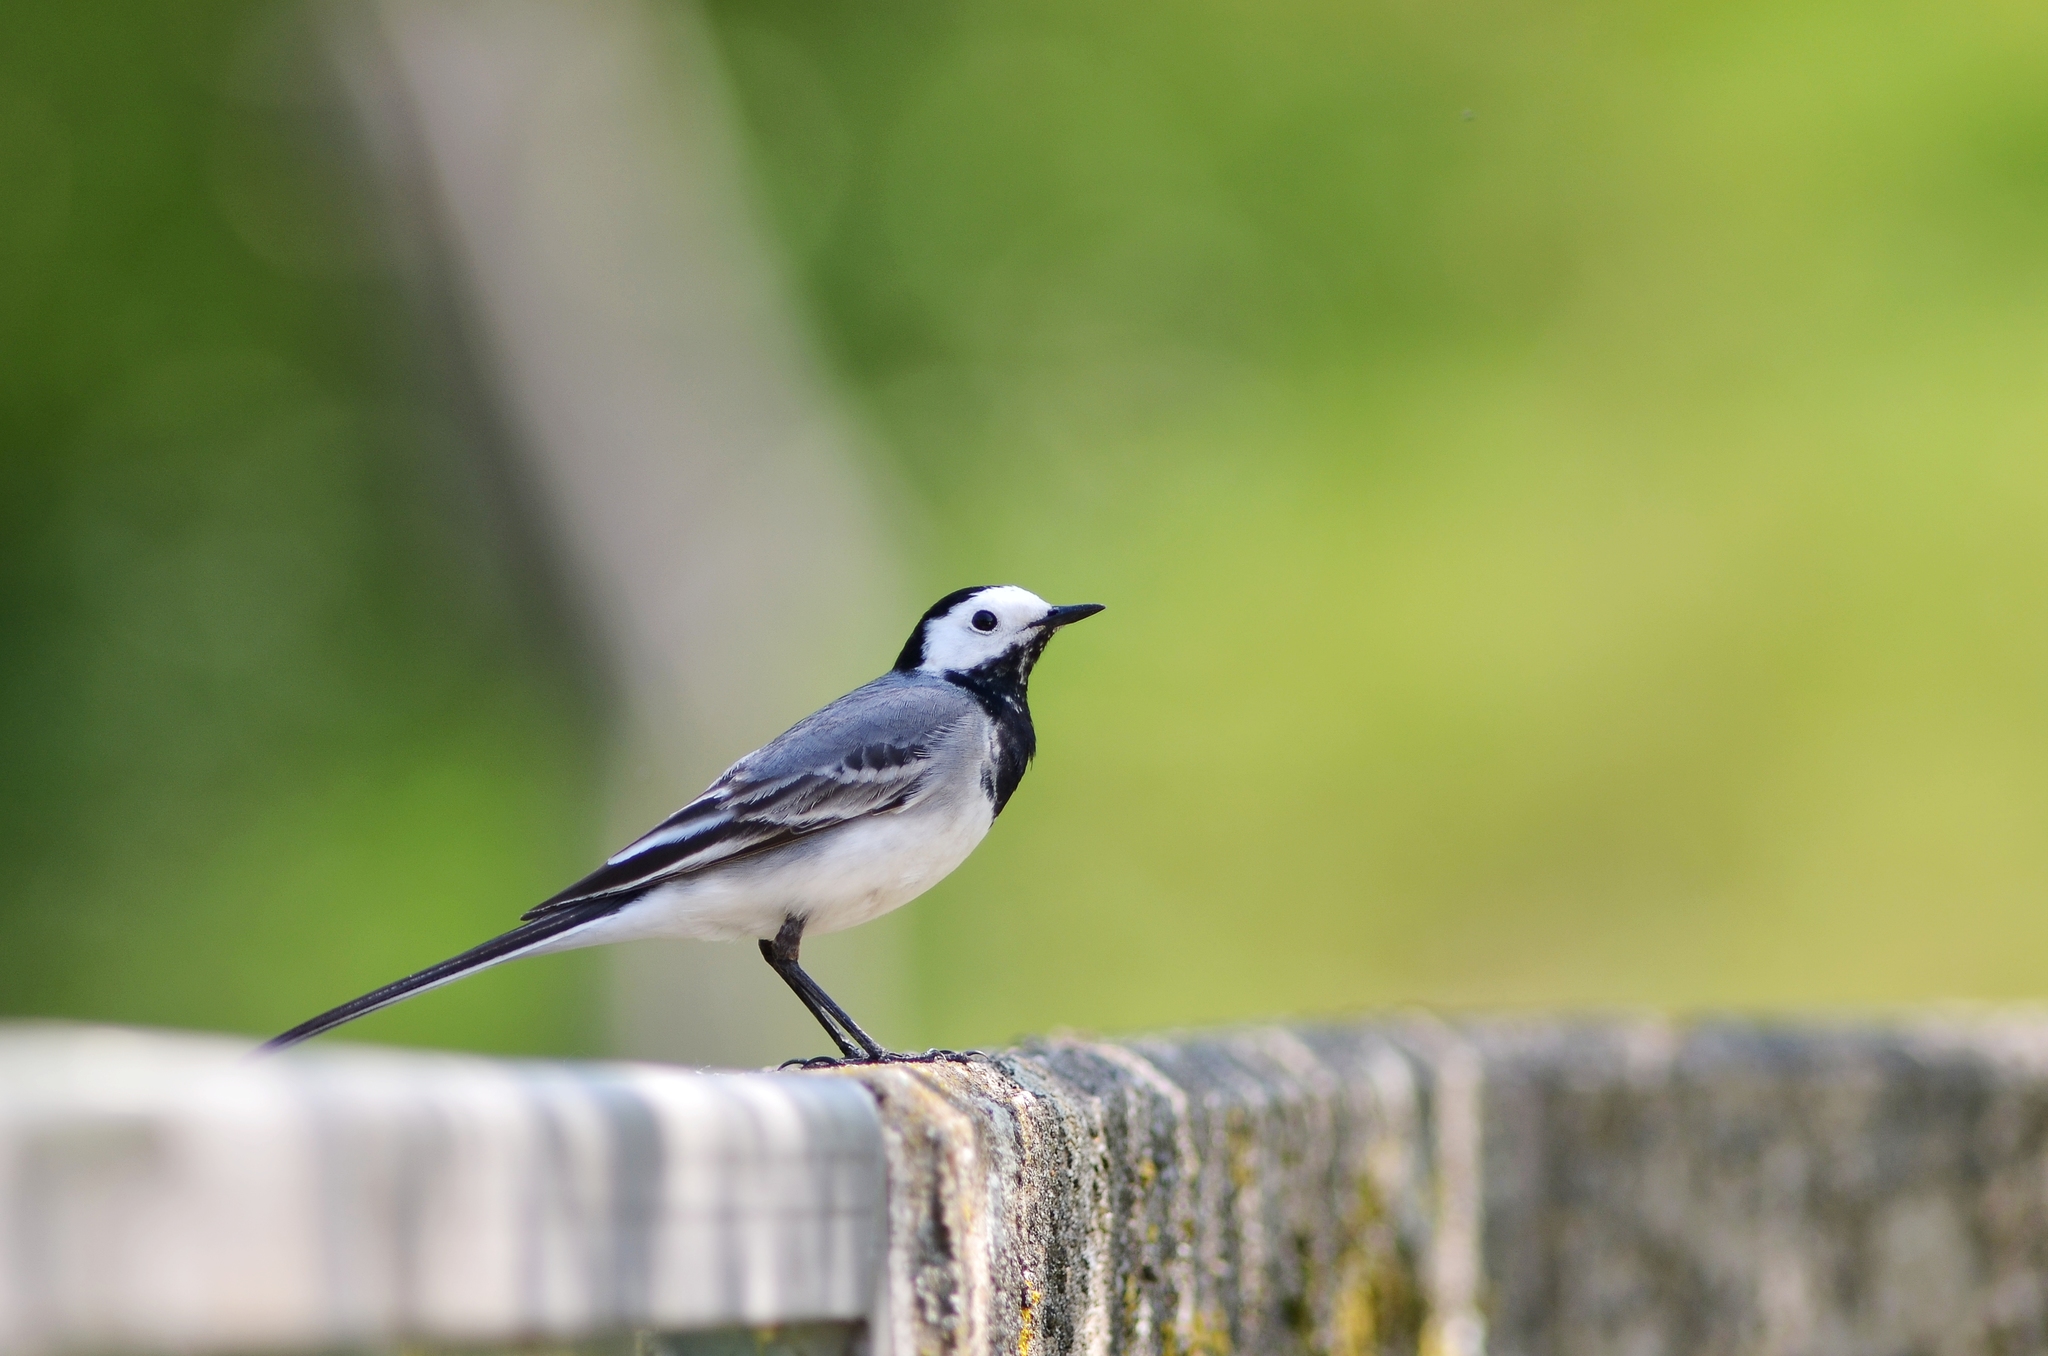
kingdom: Animalia
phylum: Chordata
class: Aves
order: Passeriformes
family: Motacillidae
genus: Motacilla
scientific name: Motacilla alba
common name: White wagtail
